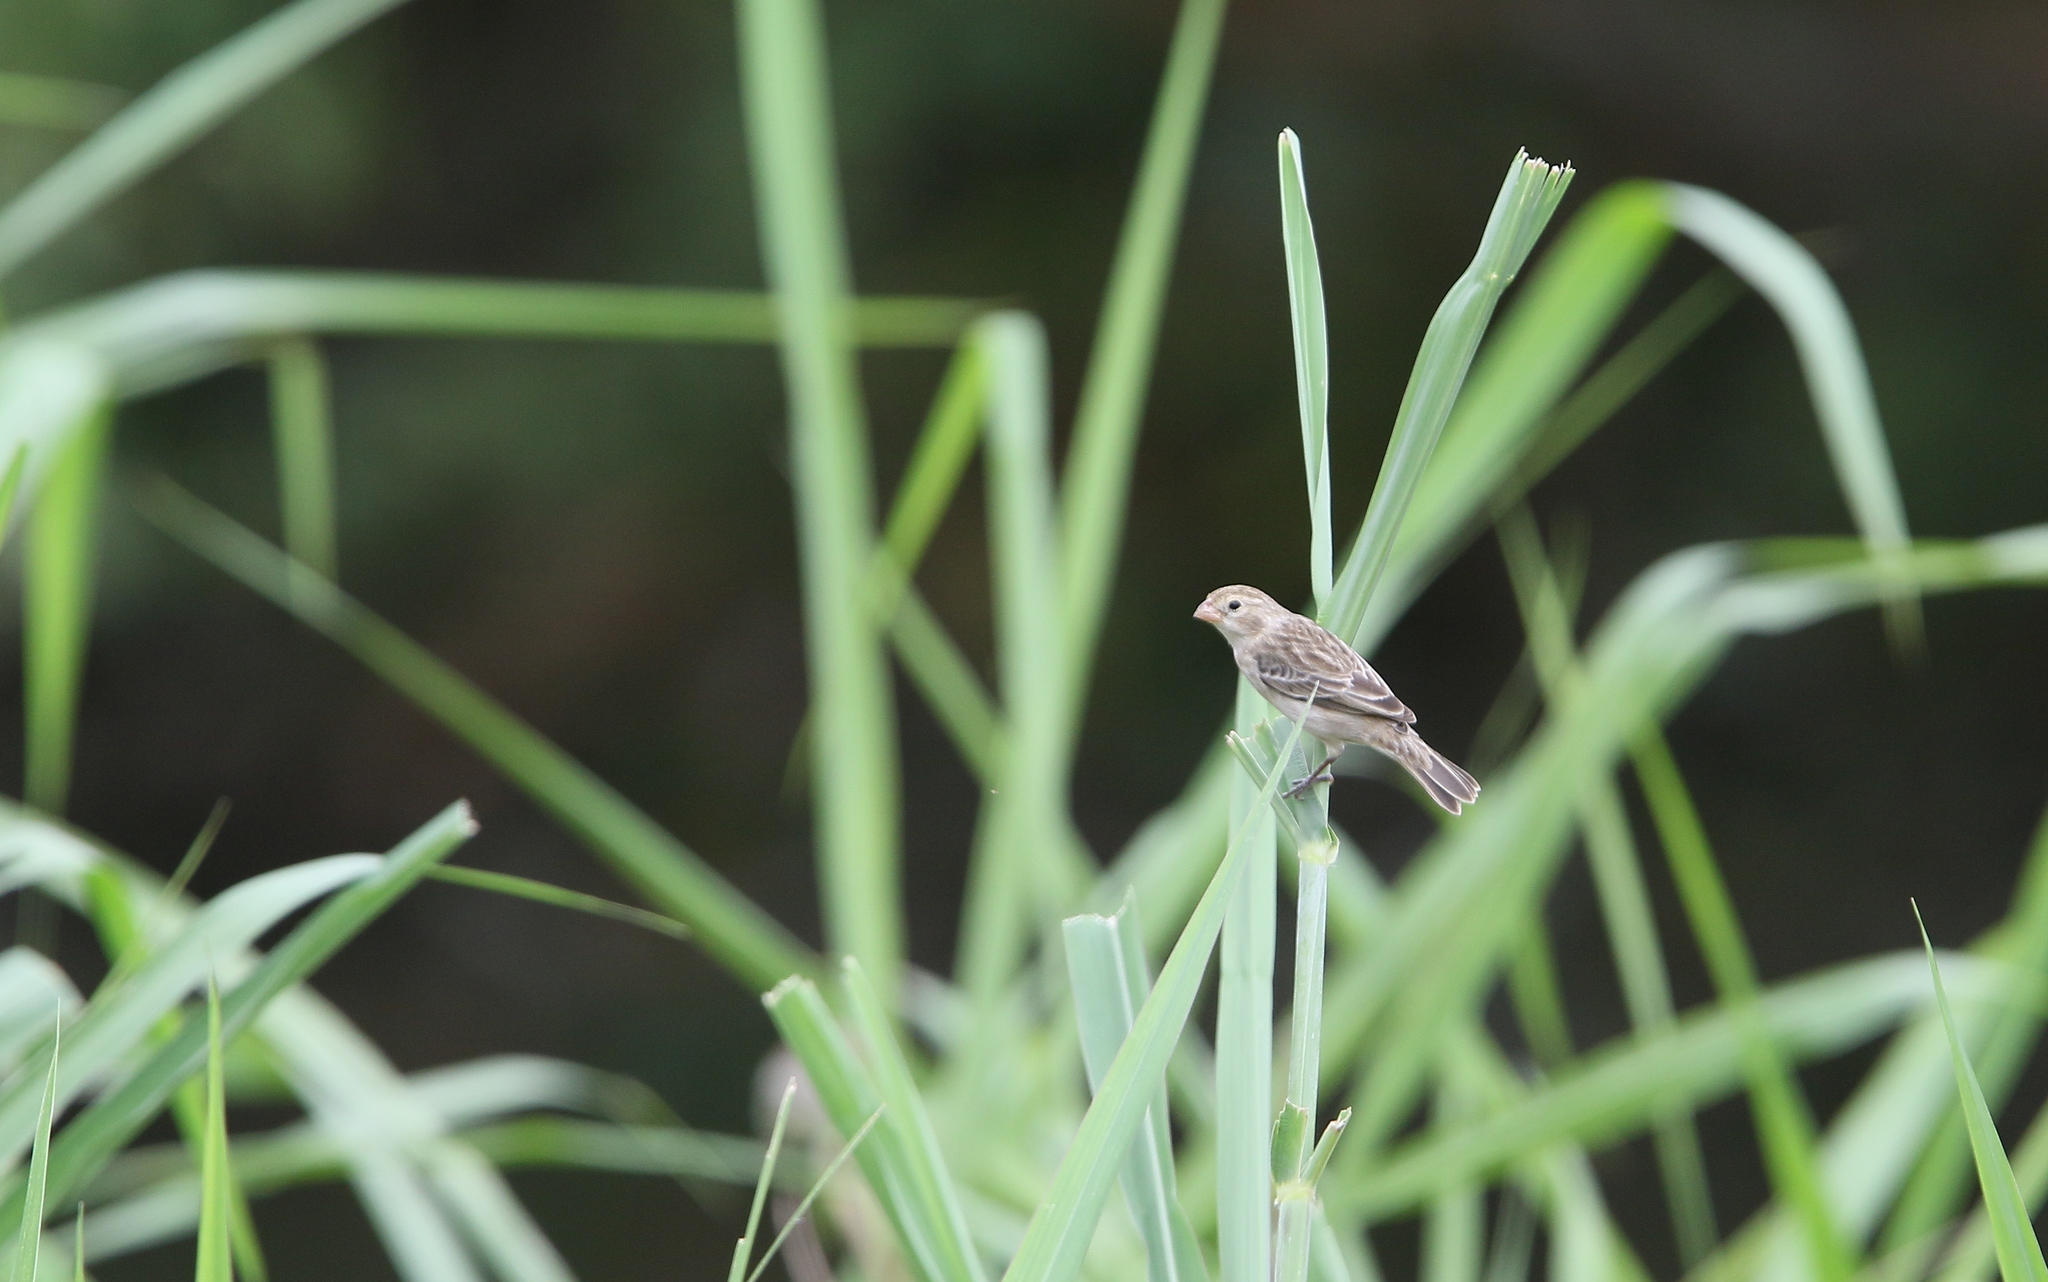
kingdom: Animalia
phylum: Chordata
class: Aves
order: Passeriformes
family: Thraupidae
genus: Sporophila
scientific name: Sporophila telasco
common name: Chestnut-throated seedeater
